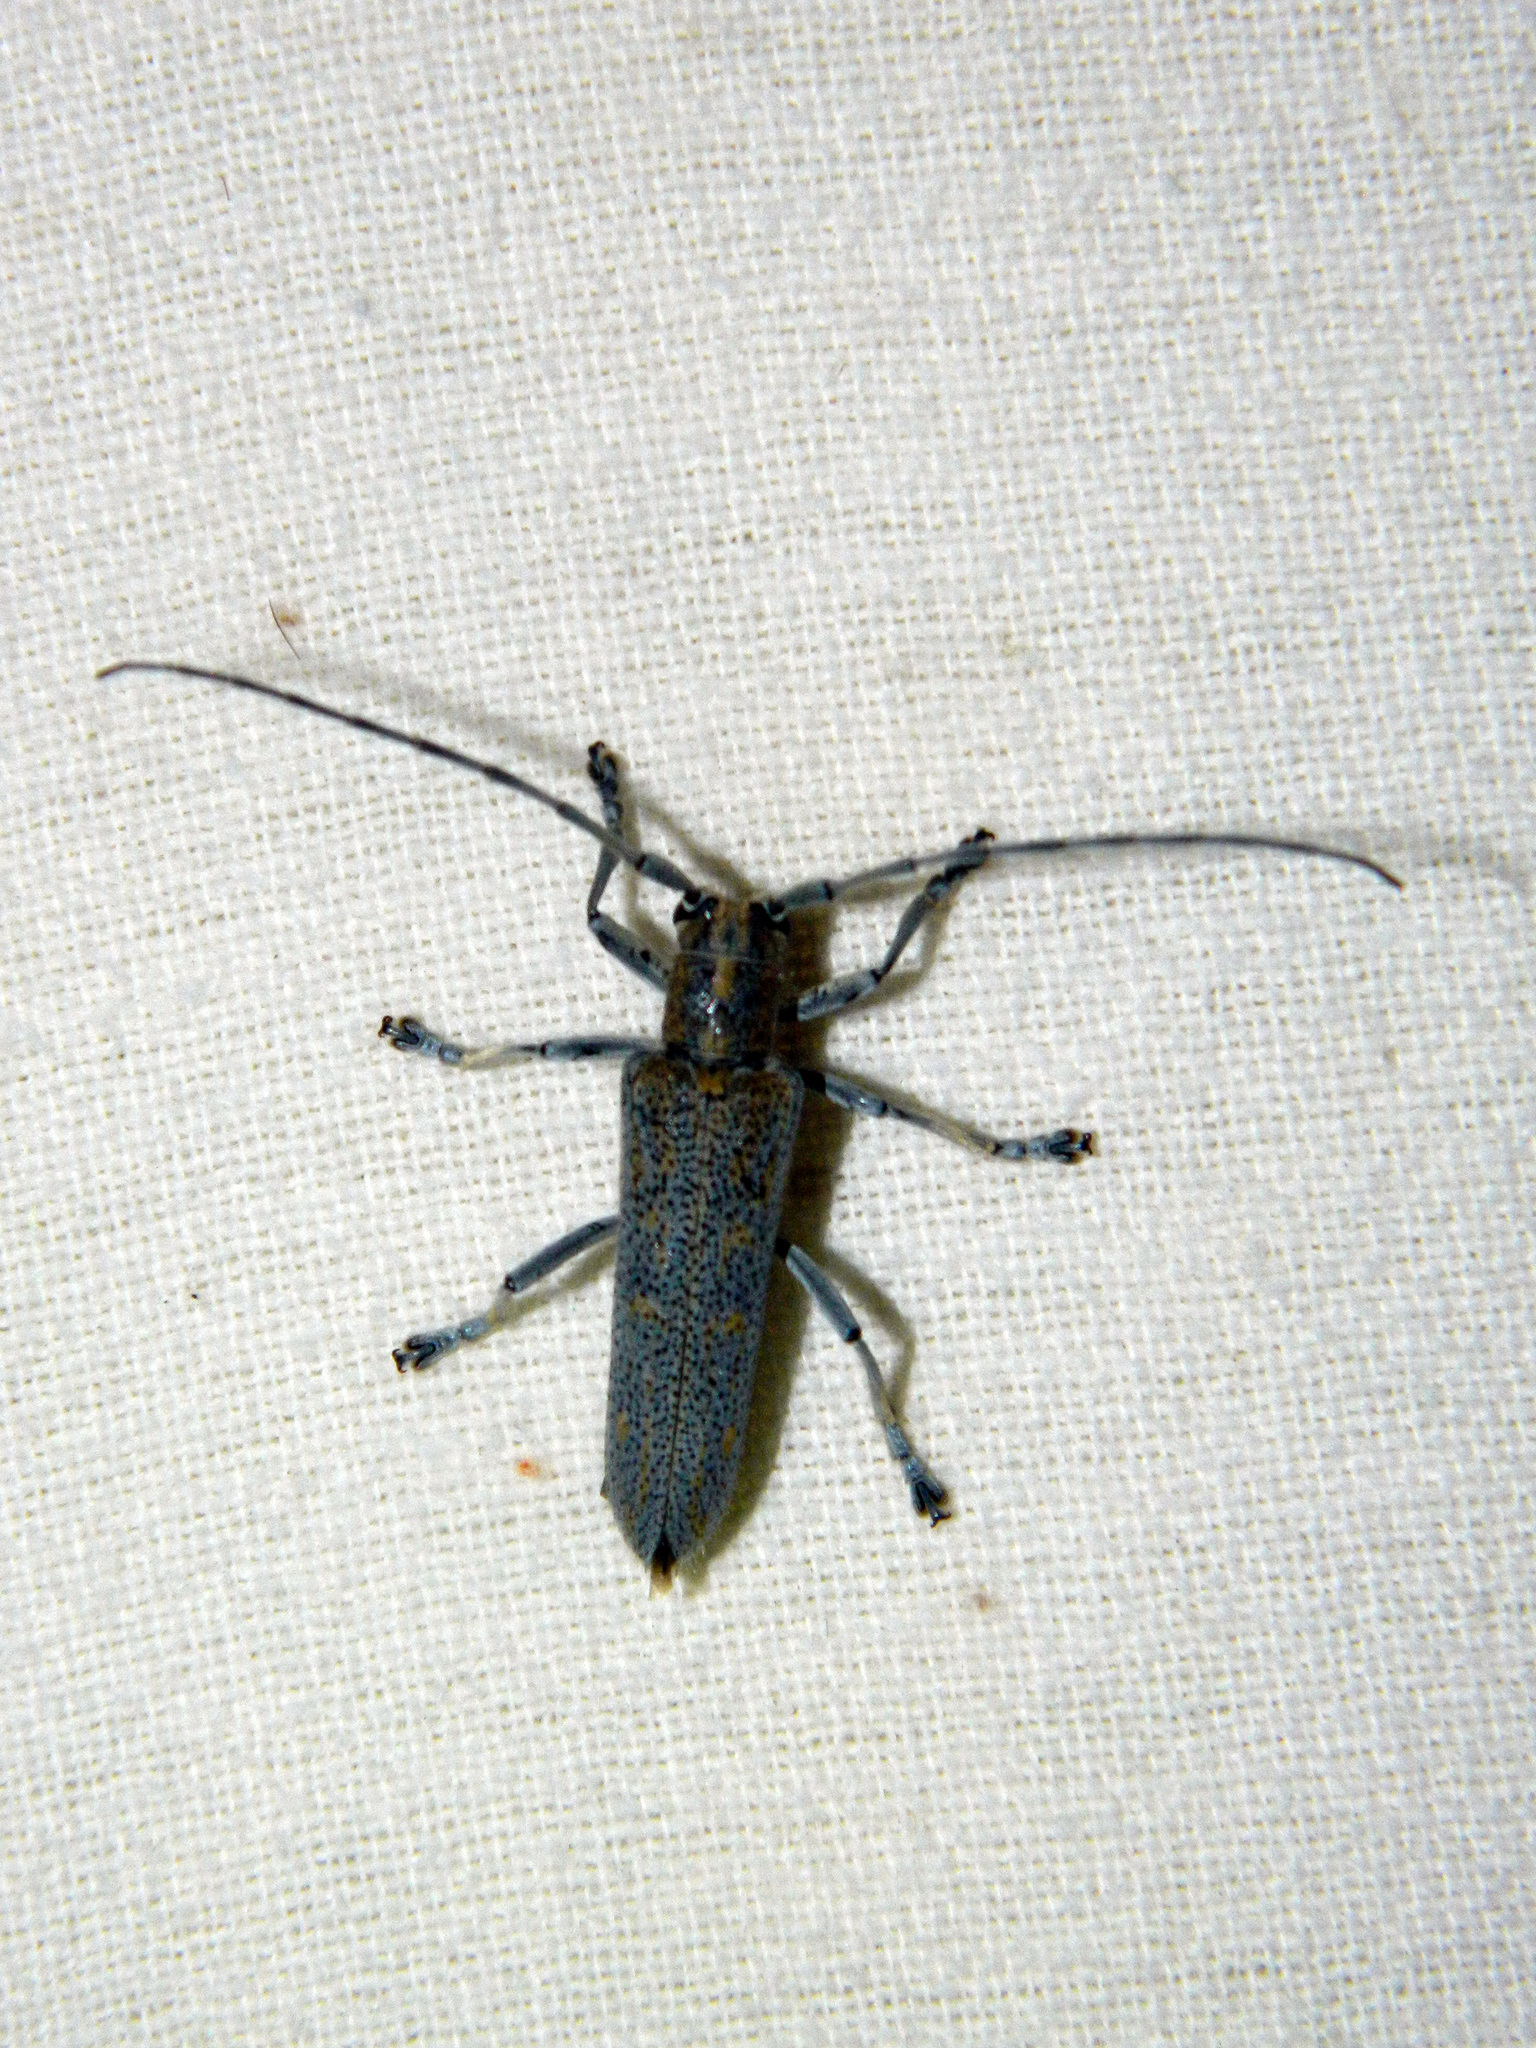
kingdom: Animalia
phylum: Arthropoda
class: Insecta
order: Coleoptera
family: Cerambycidae
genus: Saperda
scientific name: Saperda calcarata
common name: Poplar borer
